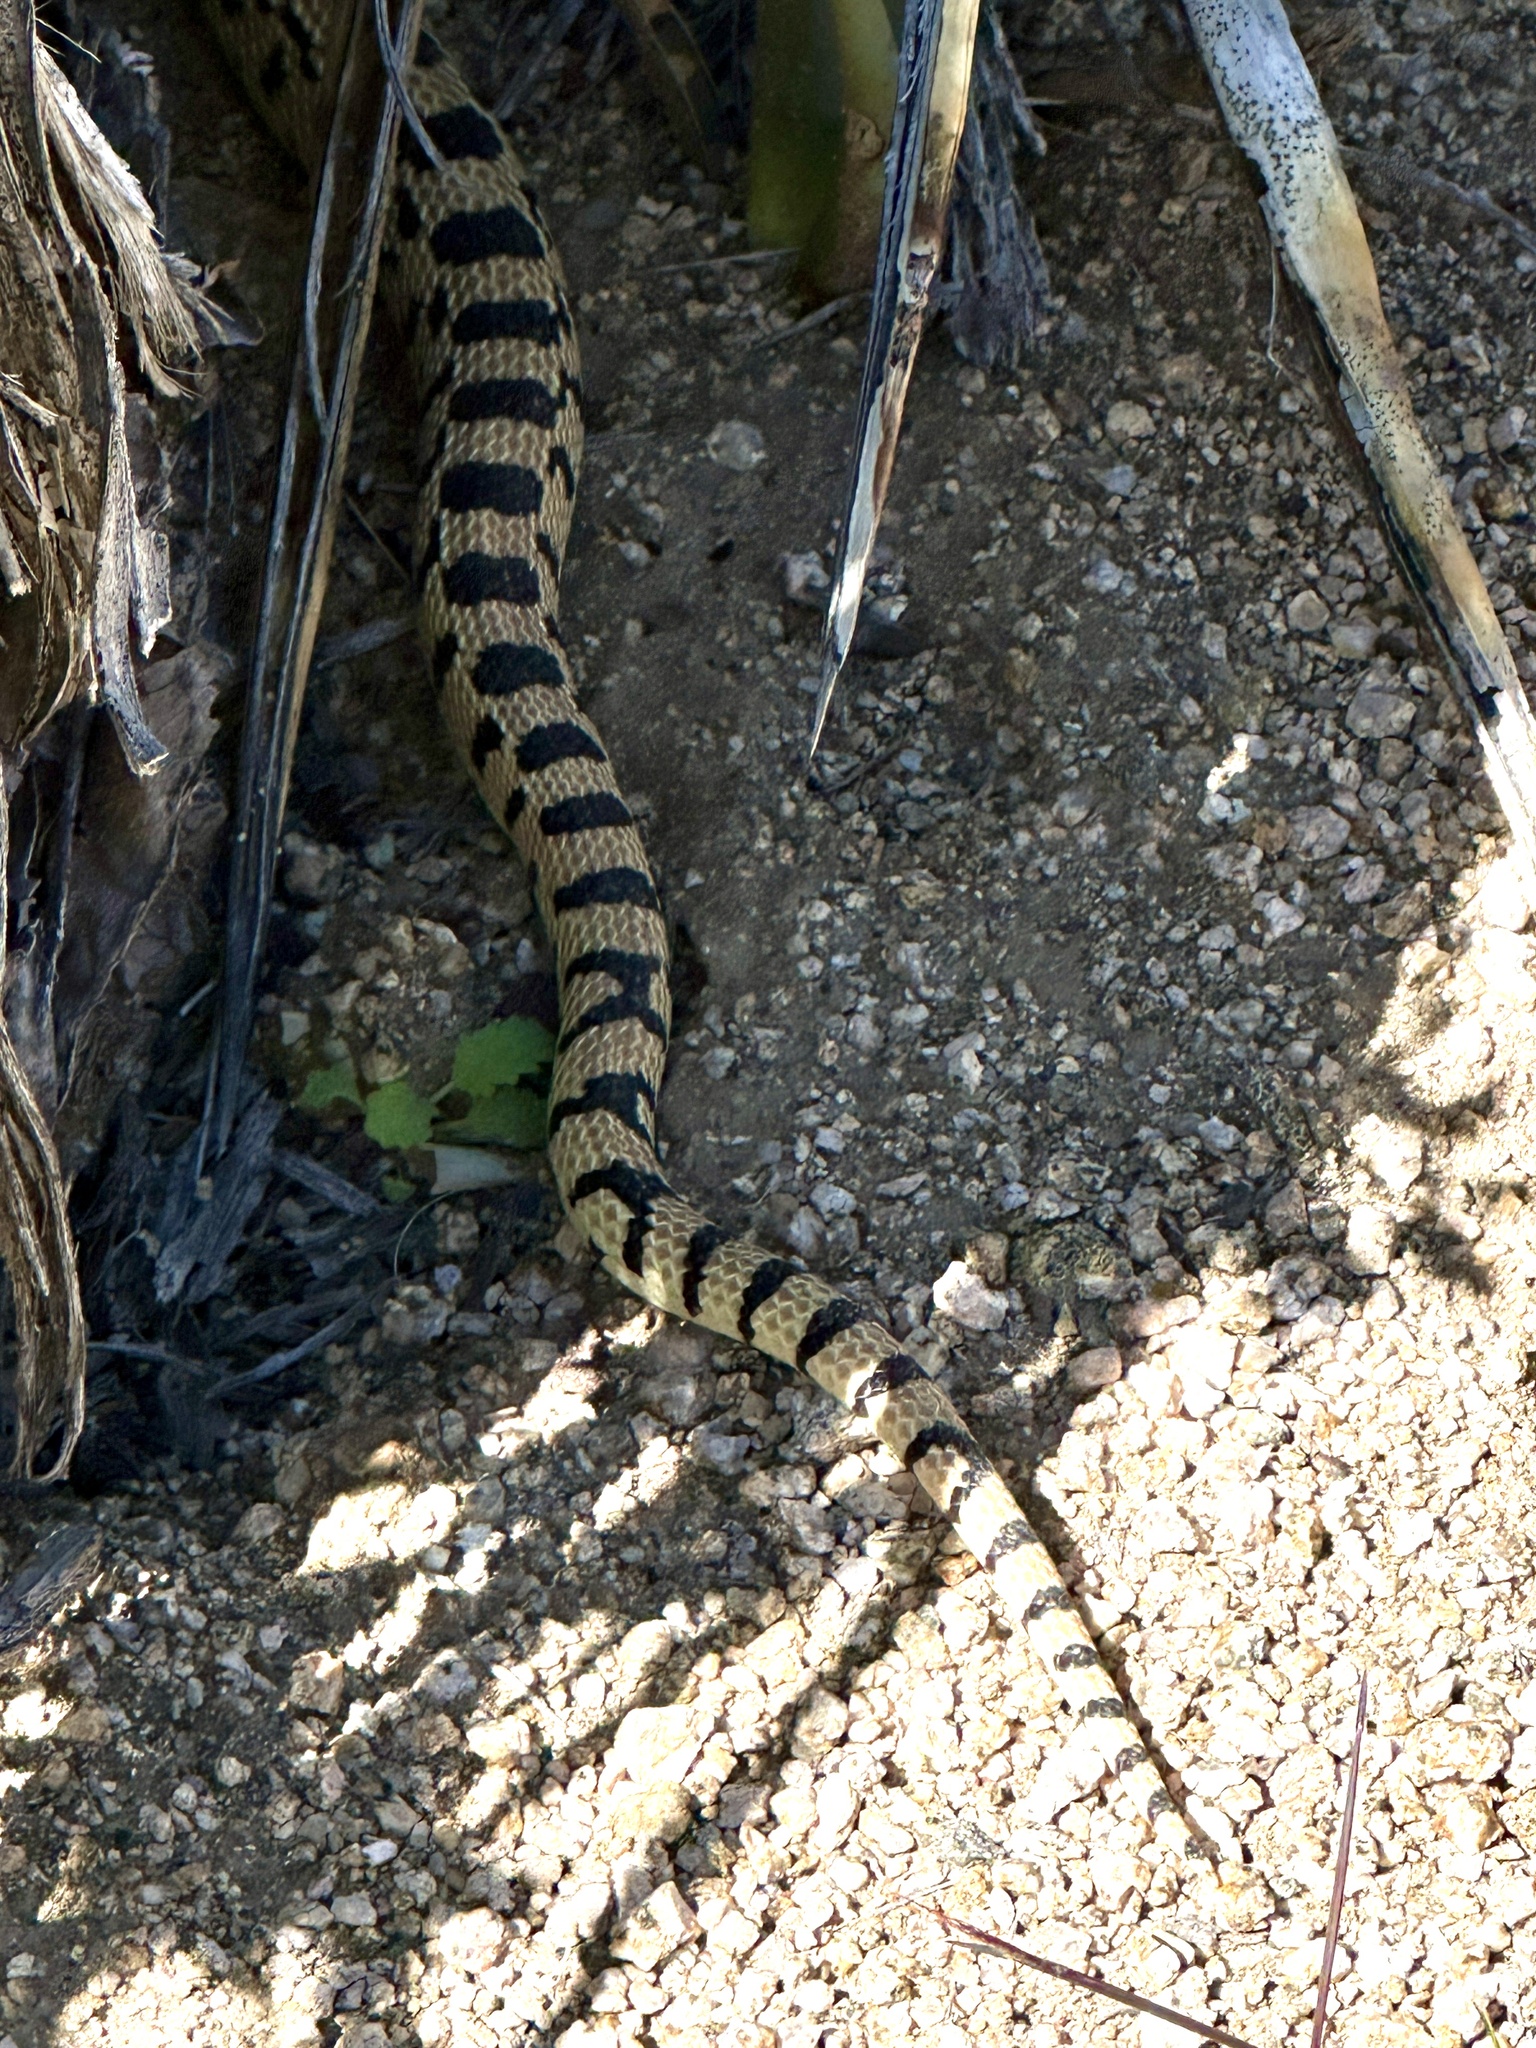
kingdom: Animalia
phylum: Chordata
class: Squamata
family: Colubridae
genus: Pituophis
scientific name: Pituophis catenifer
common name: Gopher snake
